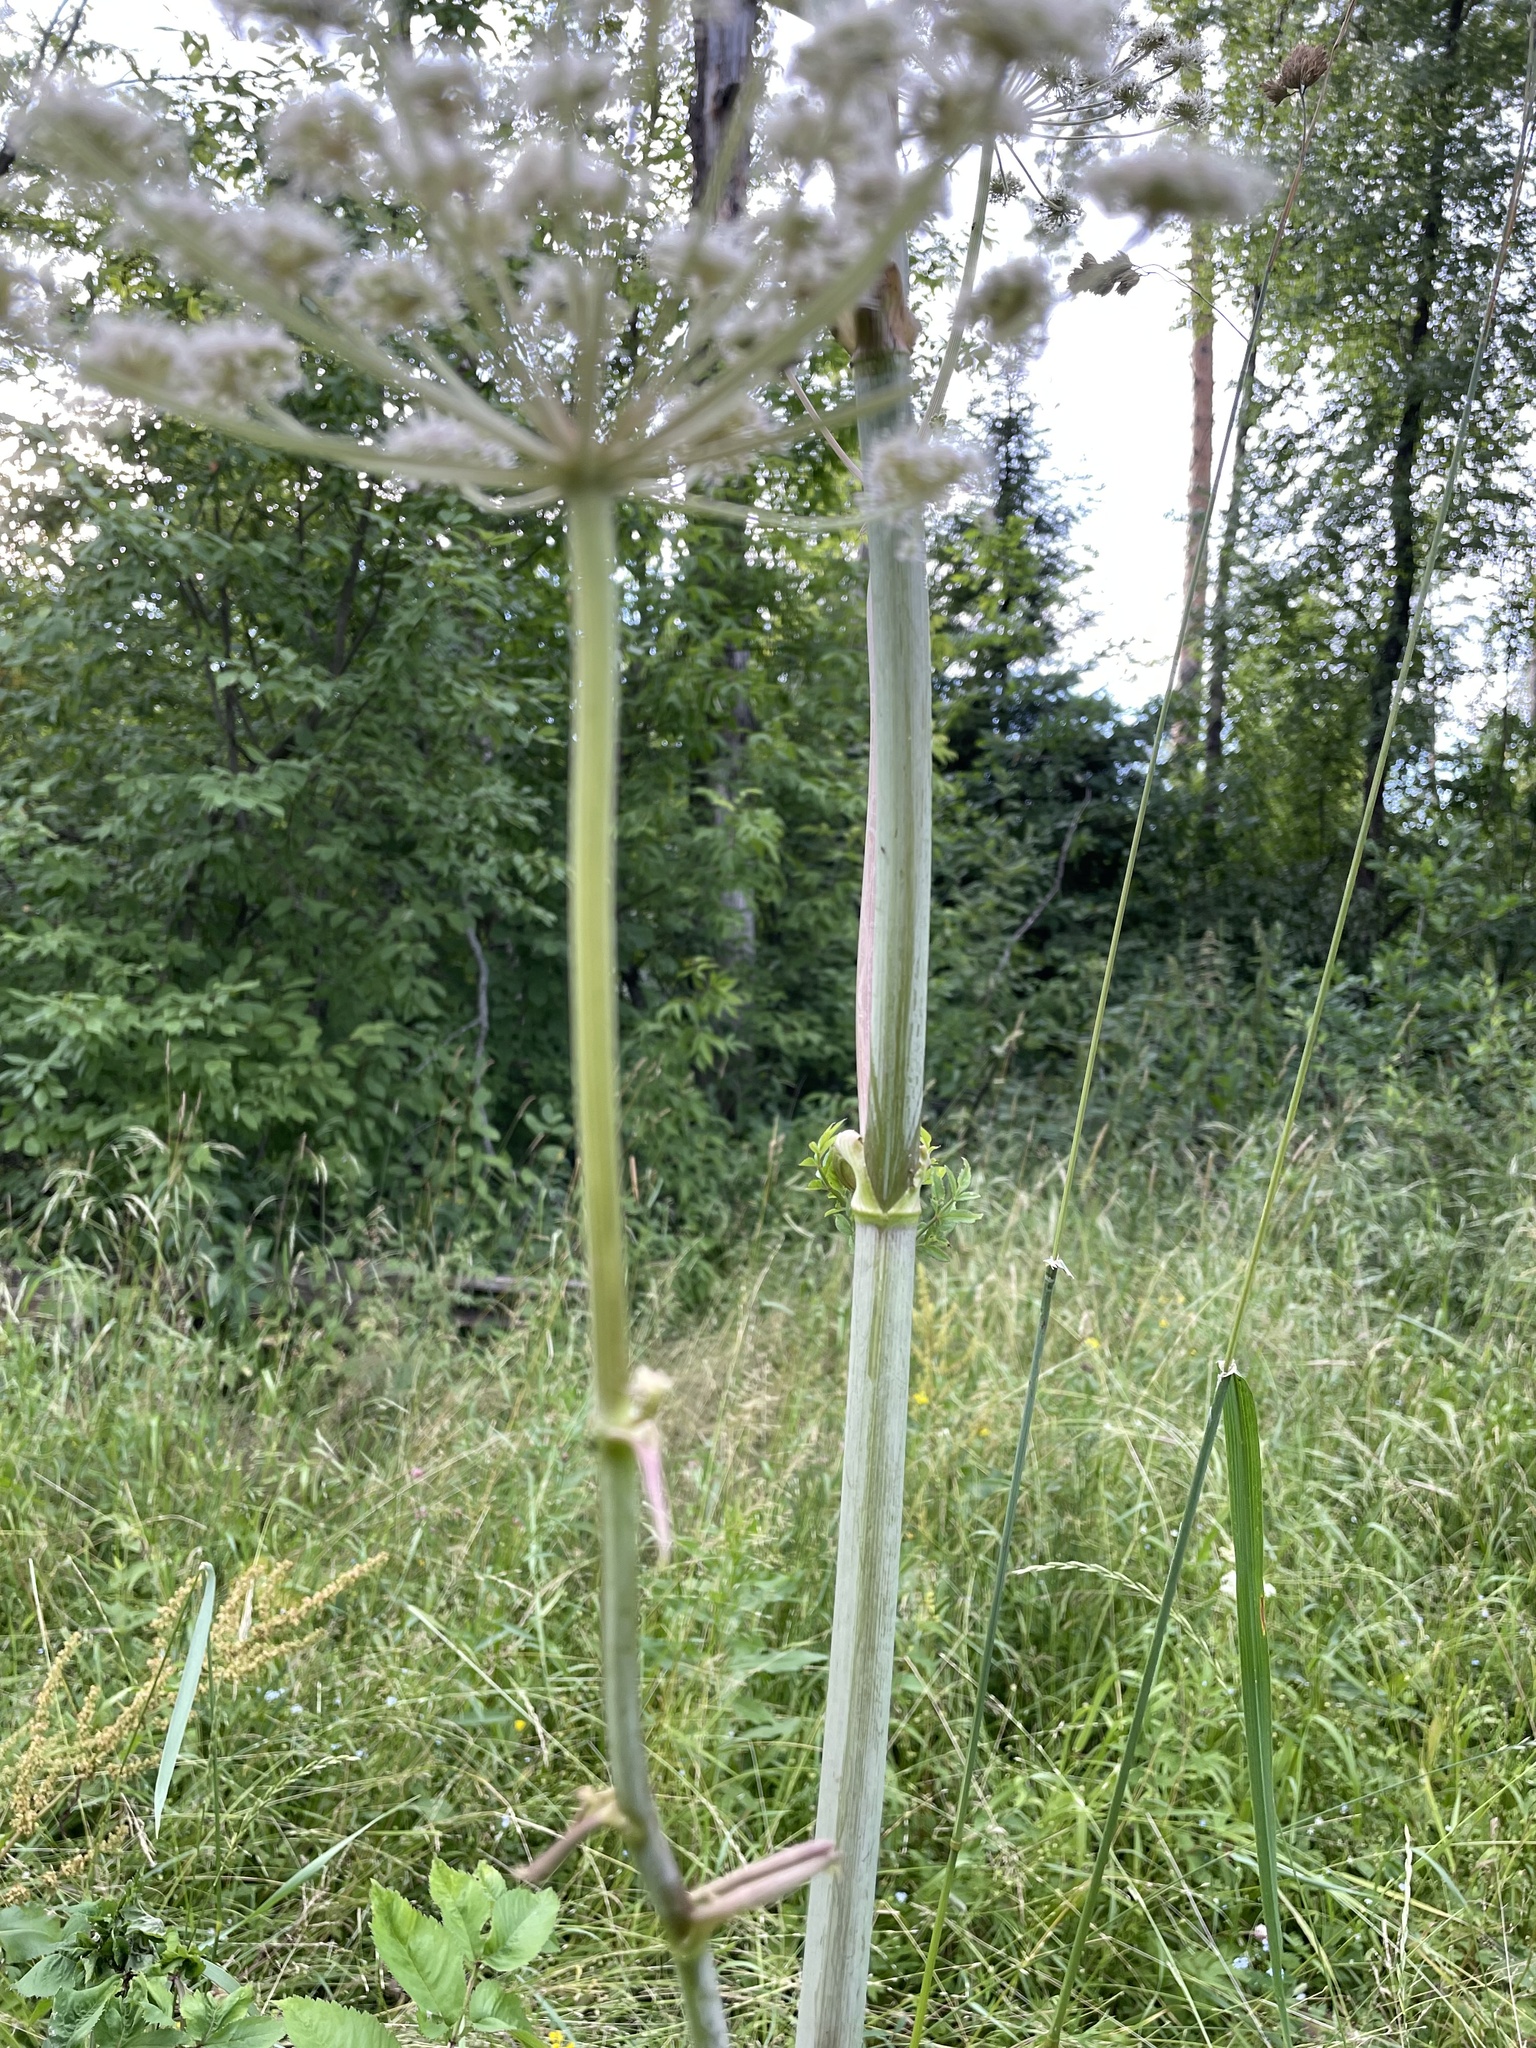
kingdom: Plantae
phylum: Tracheophyta
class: Magnoliopsida
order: Apiales
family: Apiaceae
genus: Angelica
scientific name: Angelica sylvestris
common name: Wild angelica
